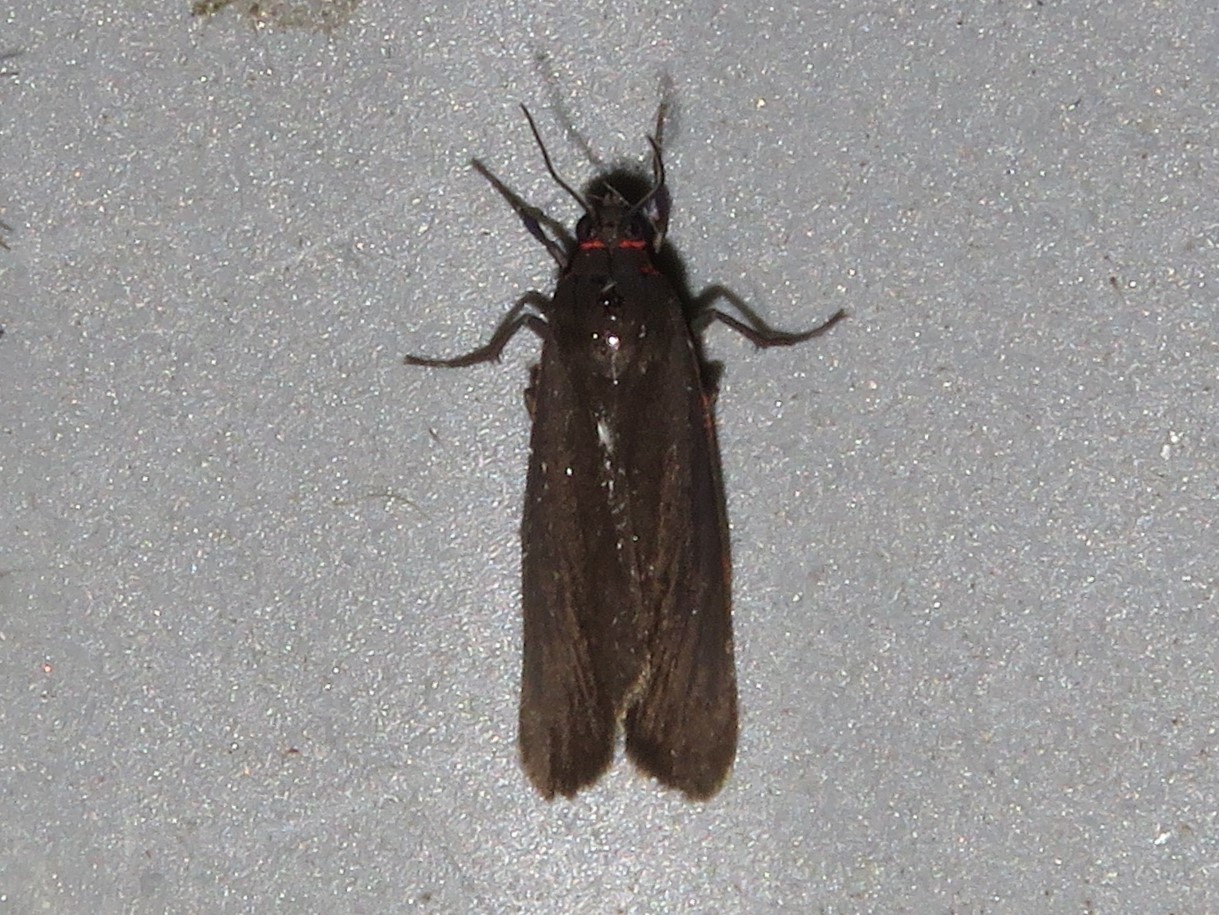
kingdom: Animalia
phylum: Arthropoda
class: Insecta
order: Lepidoptera
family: Erebidae
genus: Virbia
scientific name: Virbia laeta
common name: Joyful holomelina moth
